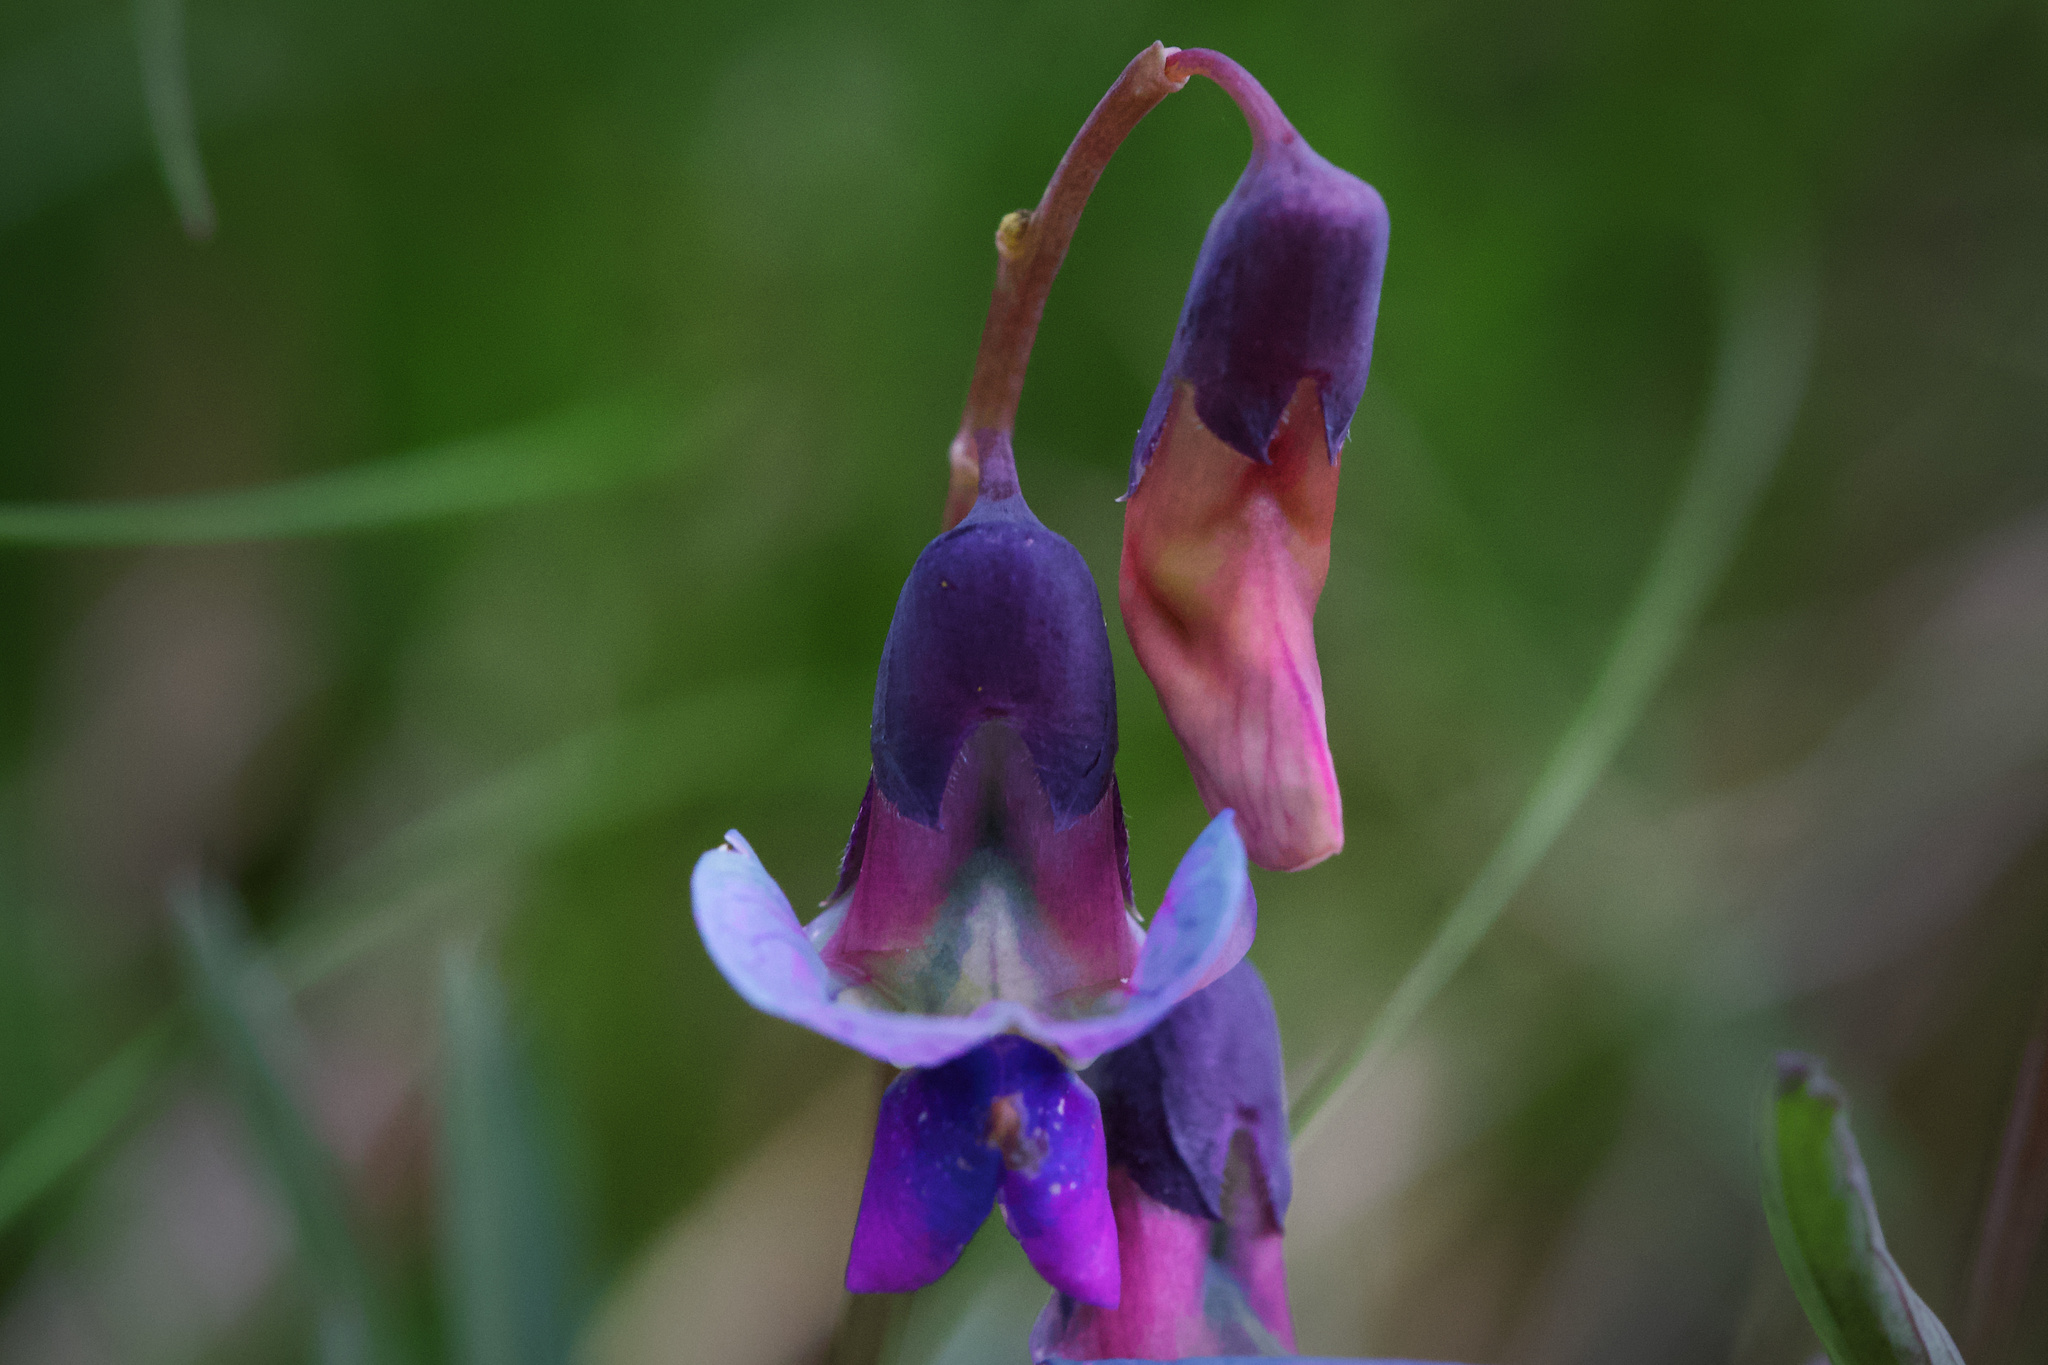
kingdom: Plantae
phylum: Tracheophyta
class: Magnoliopsida
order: Fabales
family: Fabaceae
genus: Lathyrus
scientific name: Lathyrus linifolius
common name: Bitter-vetch
